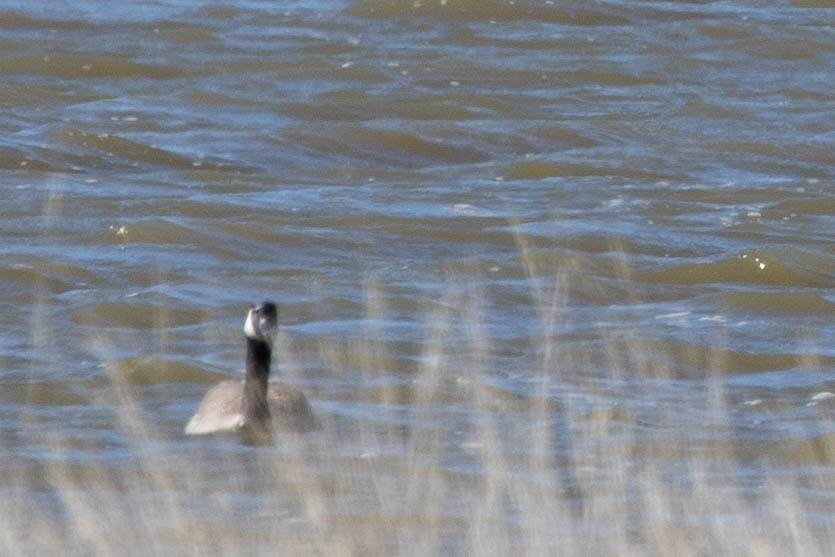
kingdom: Animalia
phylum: Chordata
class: Aves
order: Anseriformes
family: Anatidae
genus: Branta
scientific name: Branta canadensis
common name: Canada goose
